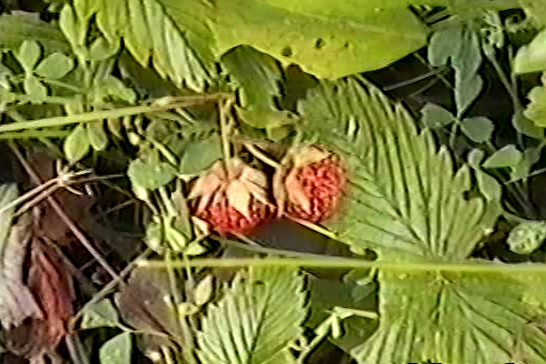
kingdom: Plantae
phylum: Tracheophyta
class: Magnoliopsida
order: Rosales
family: Rosaceae
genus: Fragaria
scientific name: Fragaria viridis
